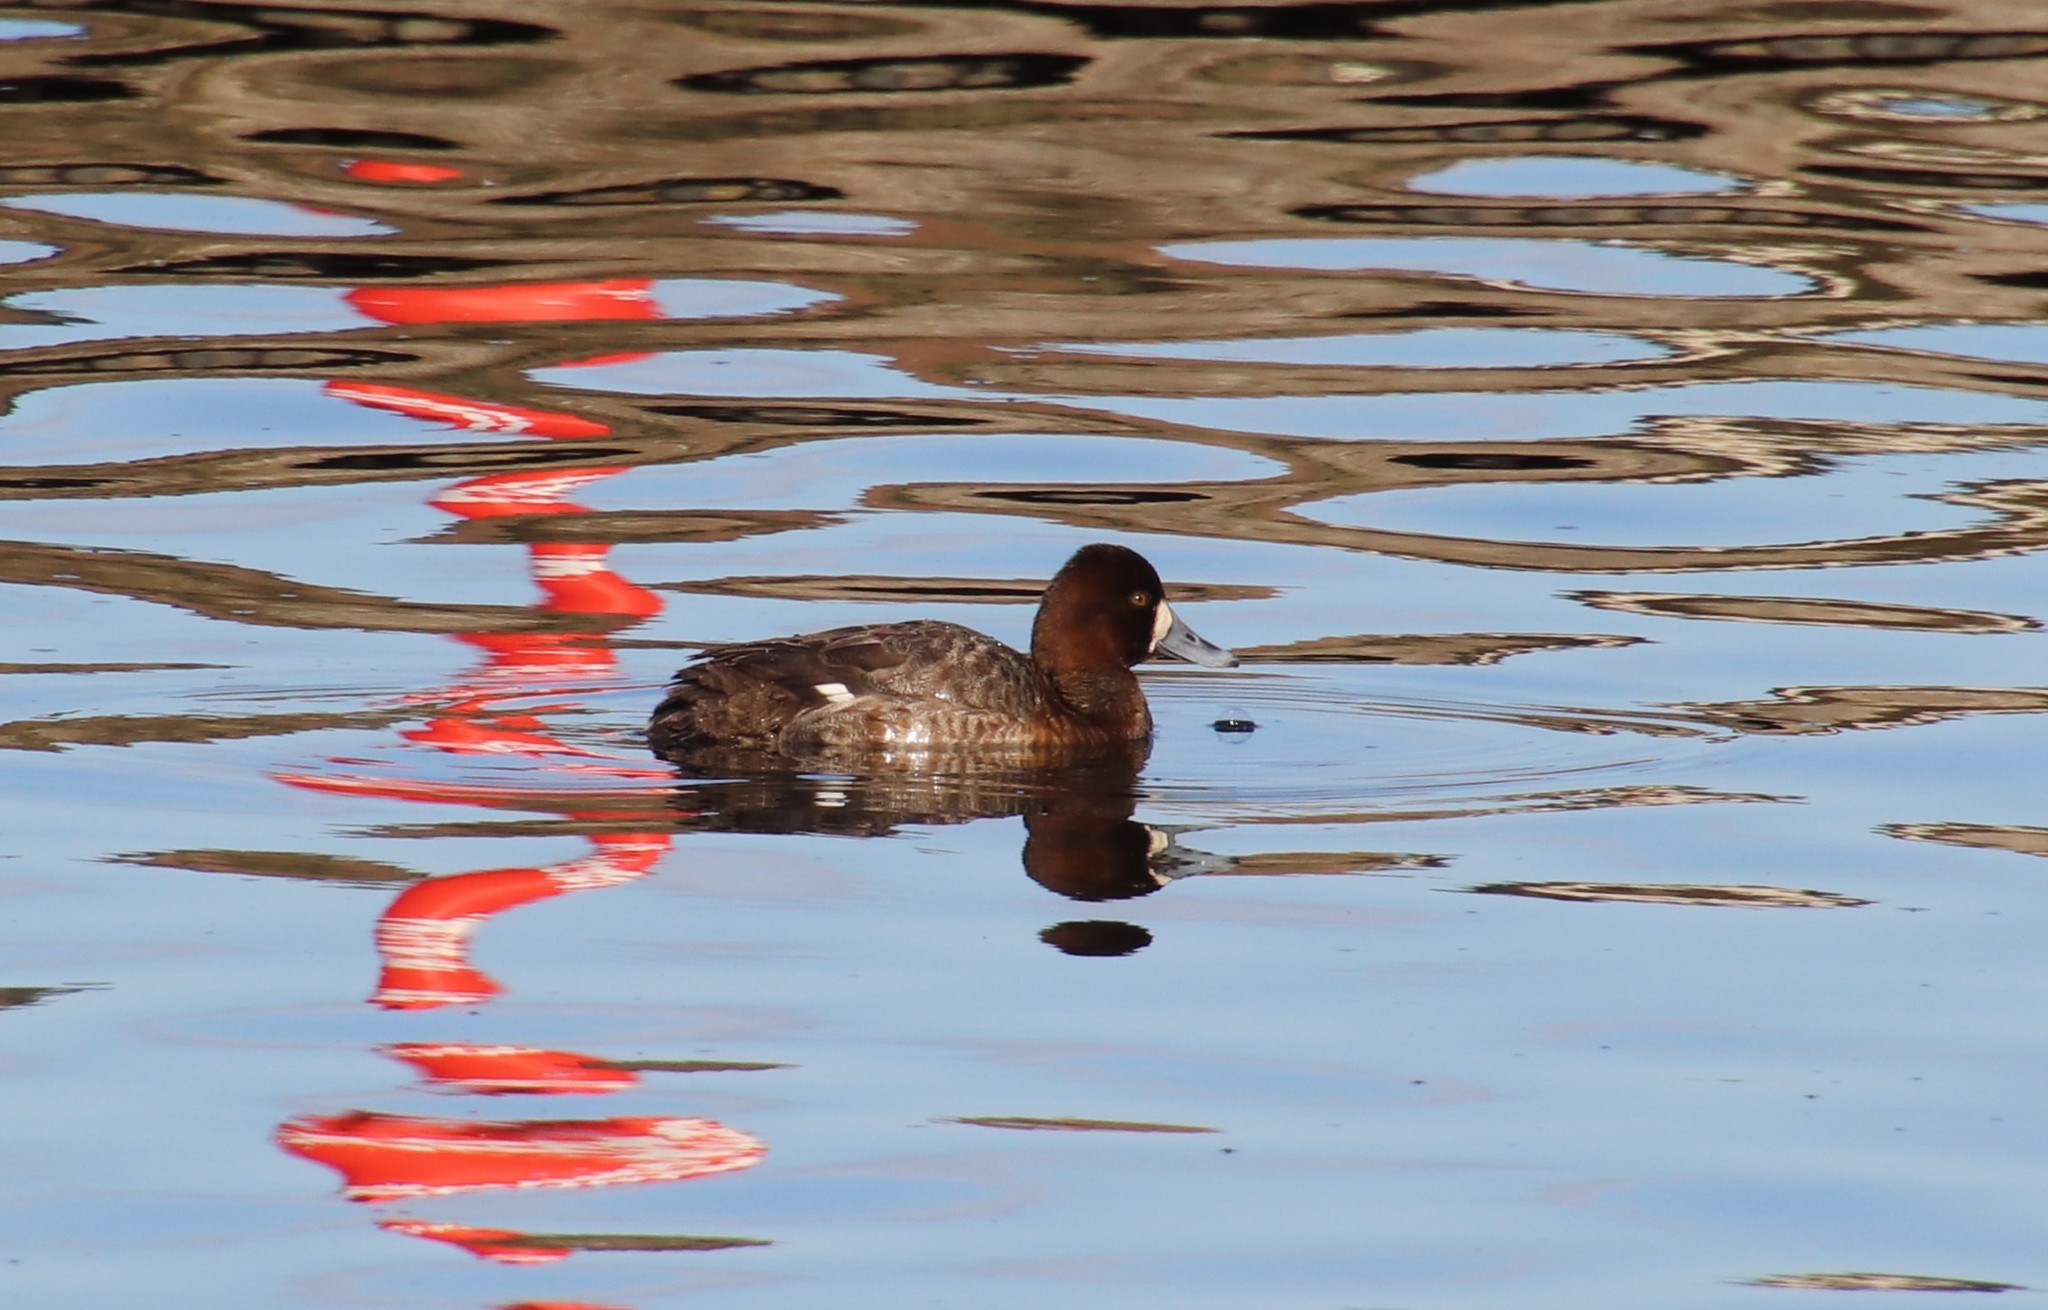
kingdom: Animalia
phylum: Chordata
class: Aves
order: Anseriformes
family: Anatidae
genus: Aythya
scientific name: Aythya affinis
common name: Lesser scaup
